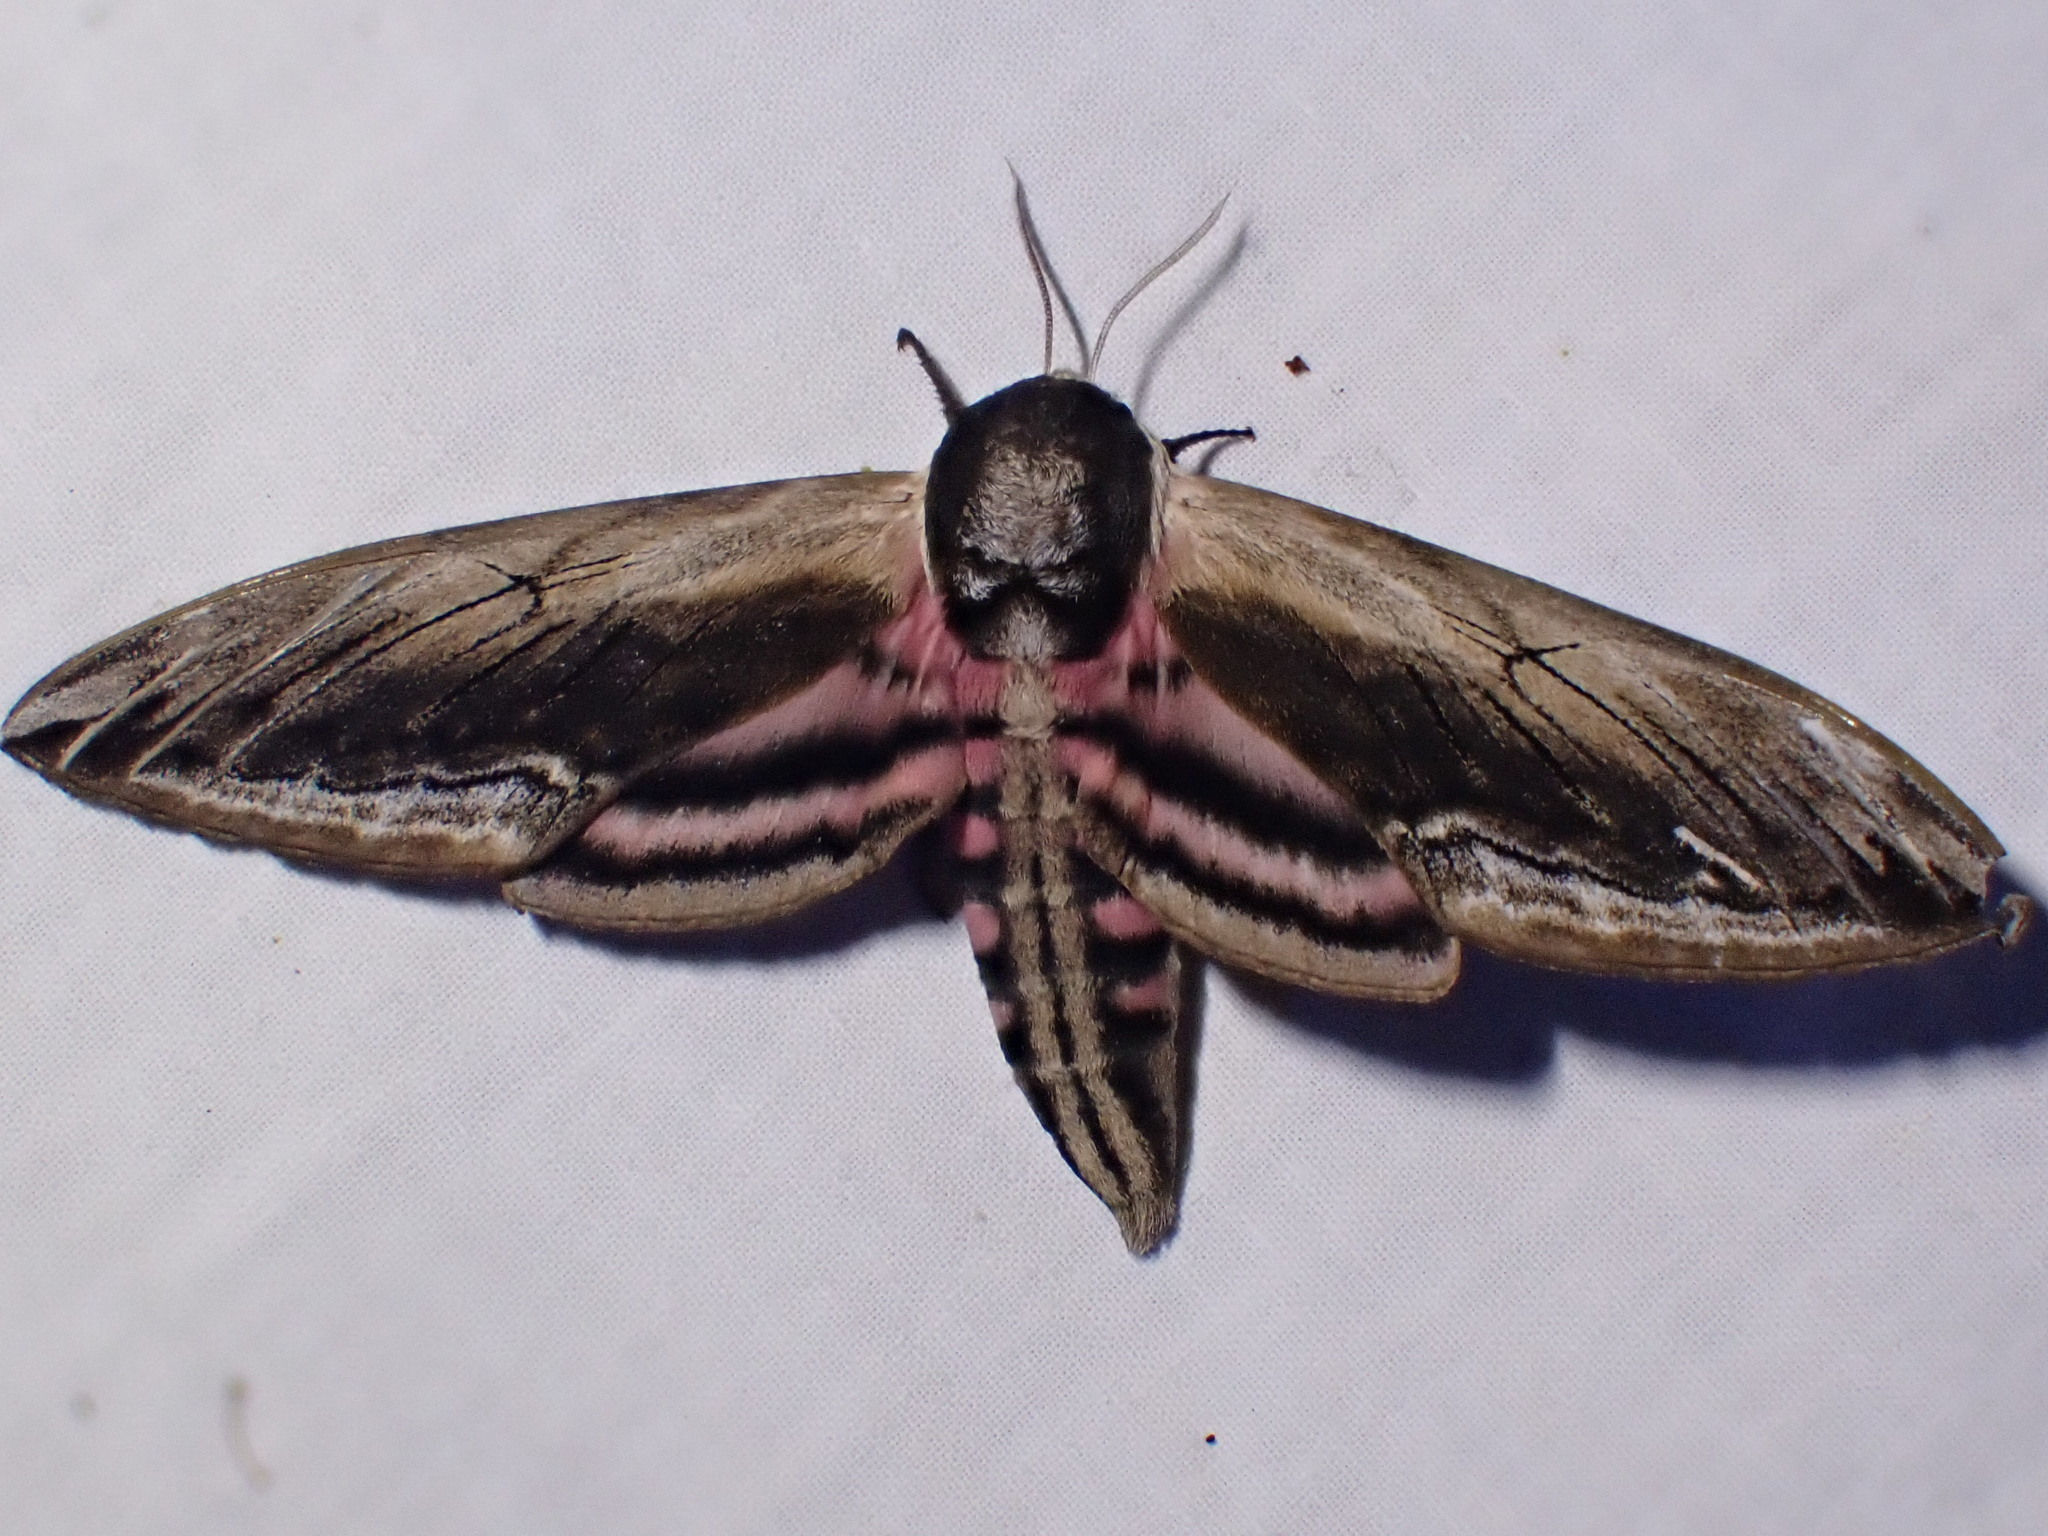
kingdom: Animalia
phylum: Arthropoda
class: Insecta
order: Lepidoptera
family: Sphingidae
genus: Sphinx
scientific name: Sphinx ligustri
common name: Privet hawk-moth
